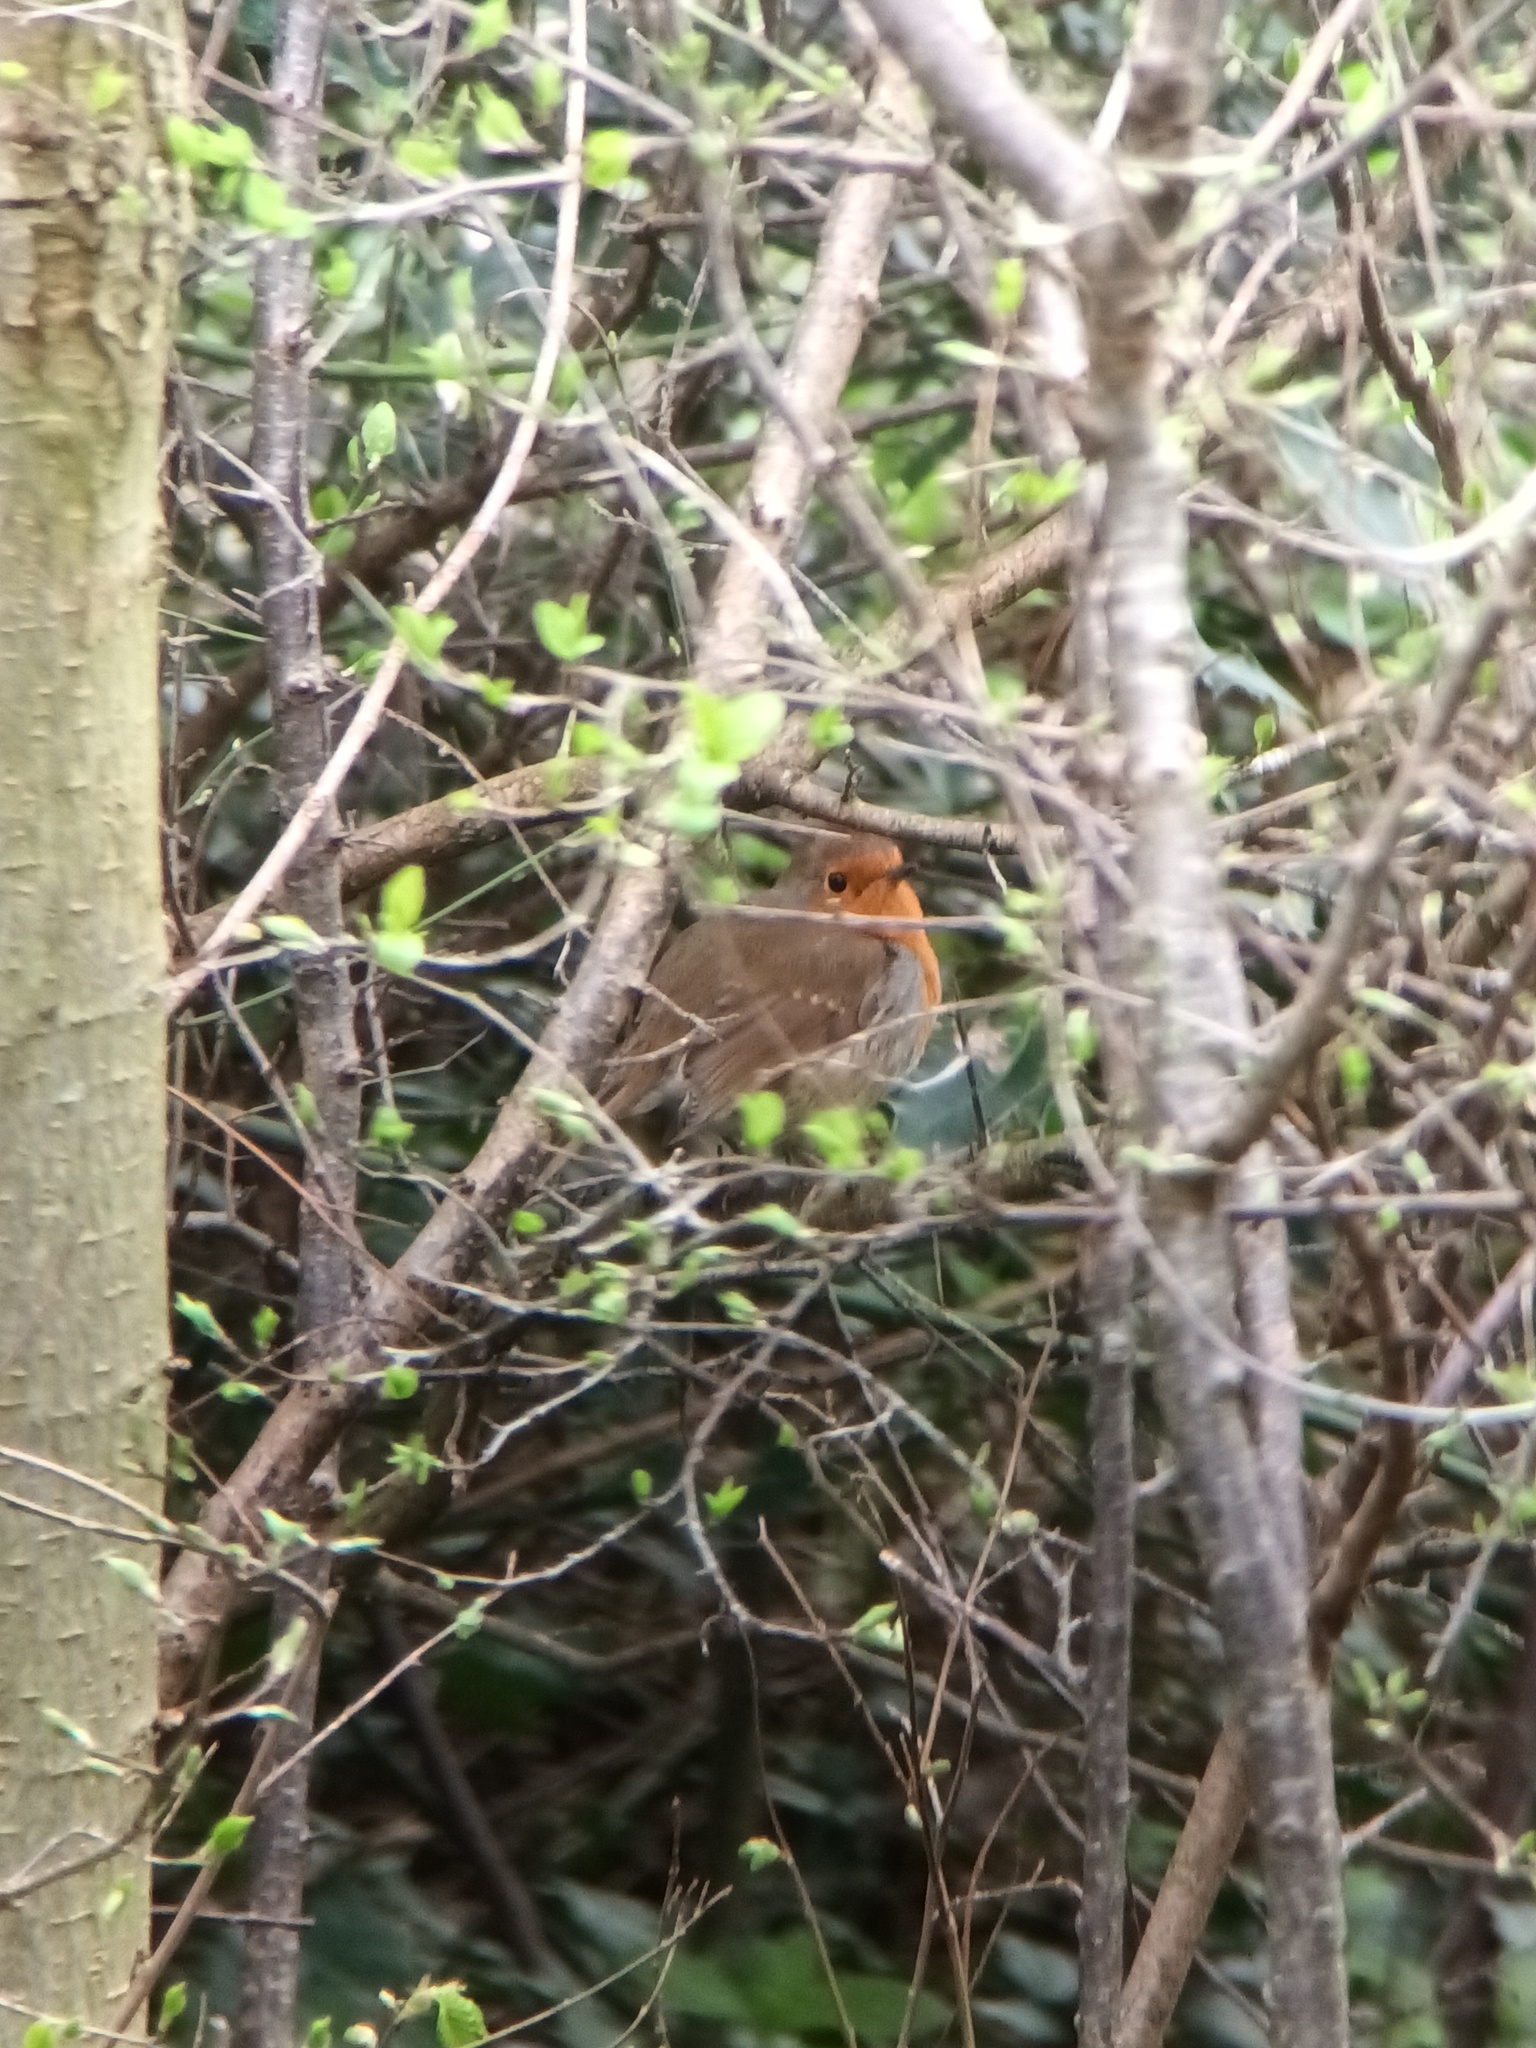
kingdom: Animalia
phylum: Chordata
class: Aves
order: Passeriformes
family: Muscicapidae
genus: Erithacus
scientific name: Erithacus rubecula
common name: European robin
